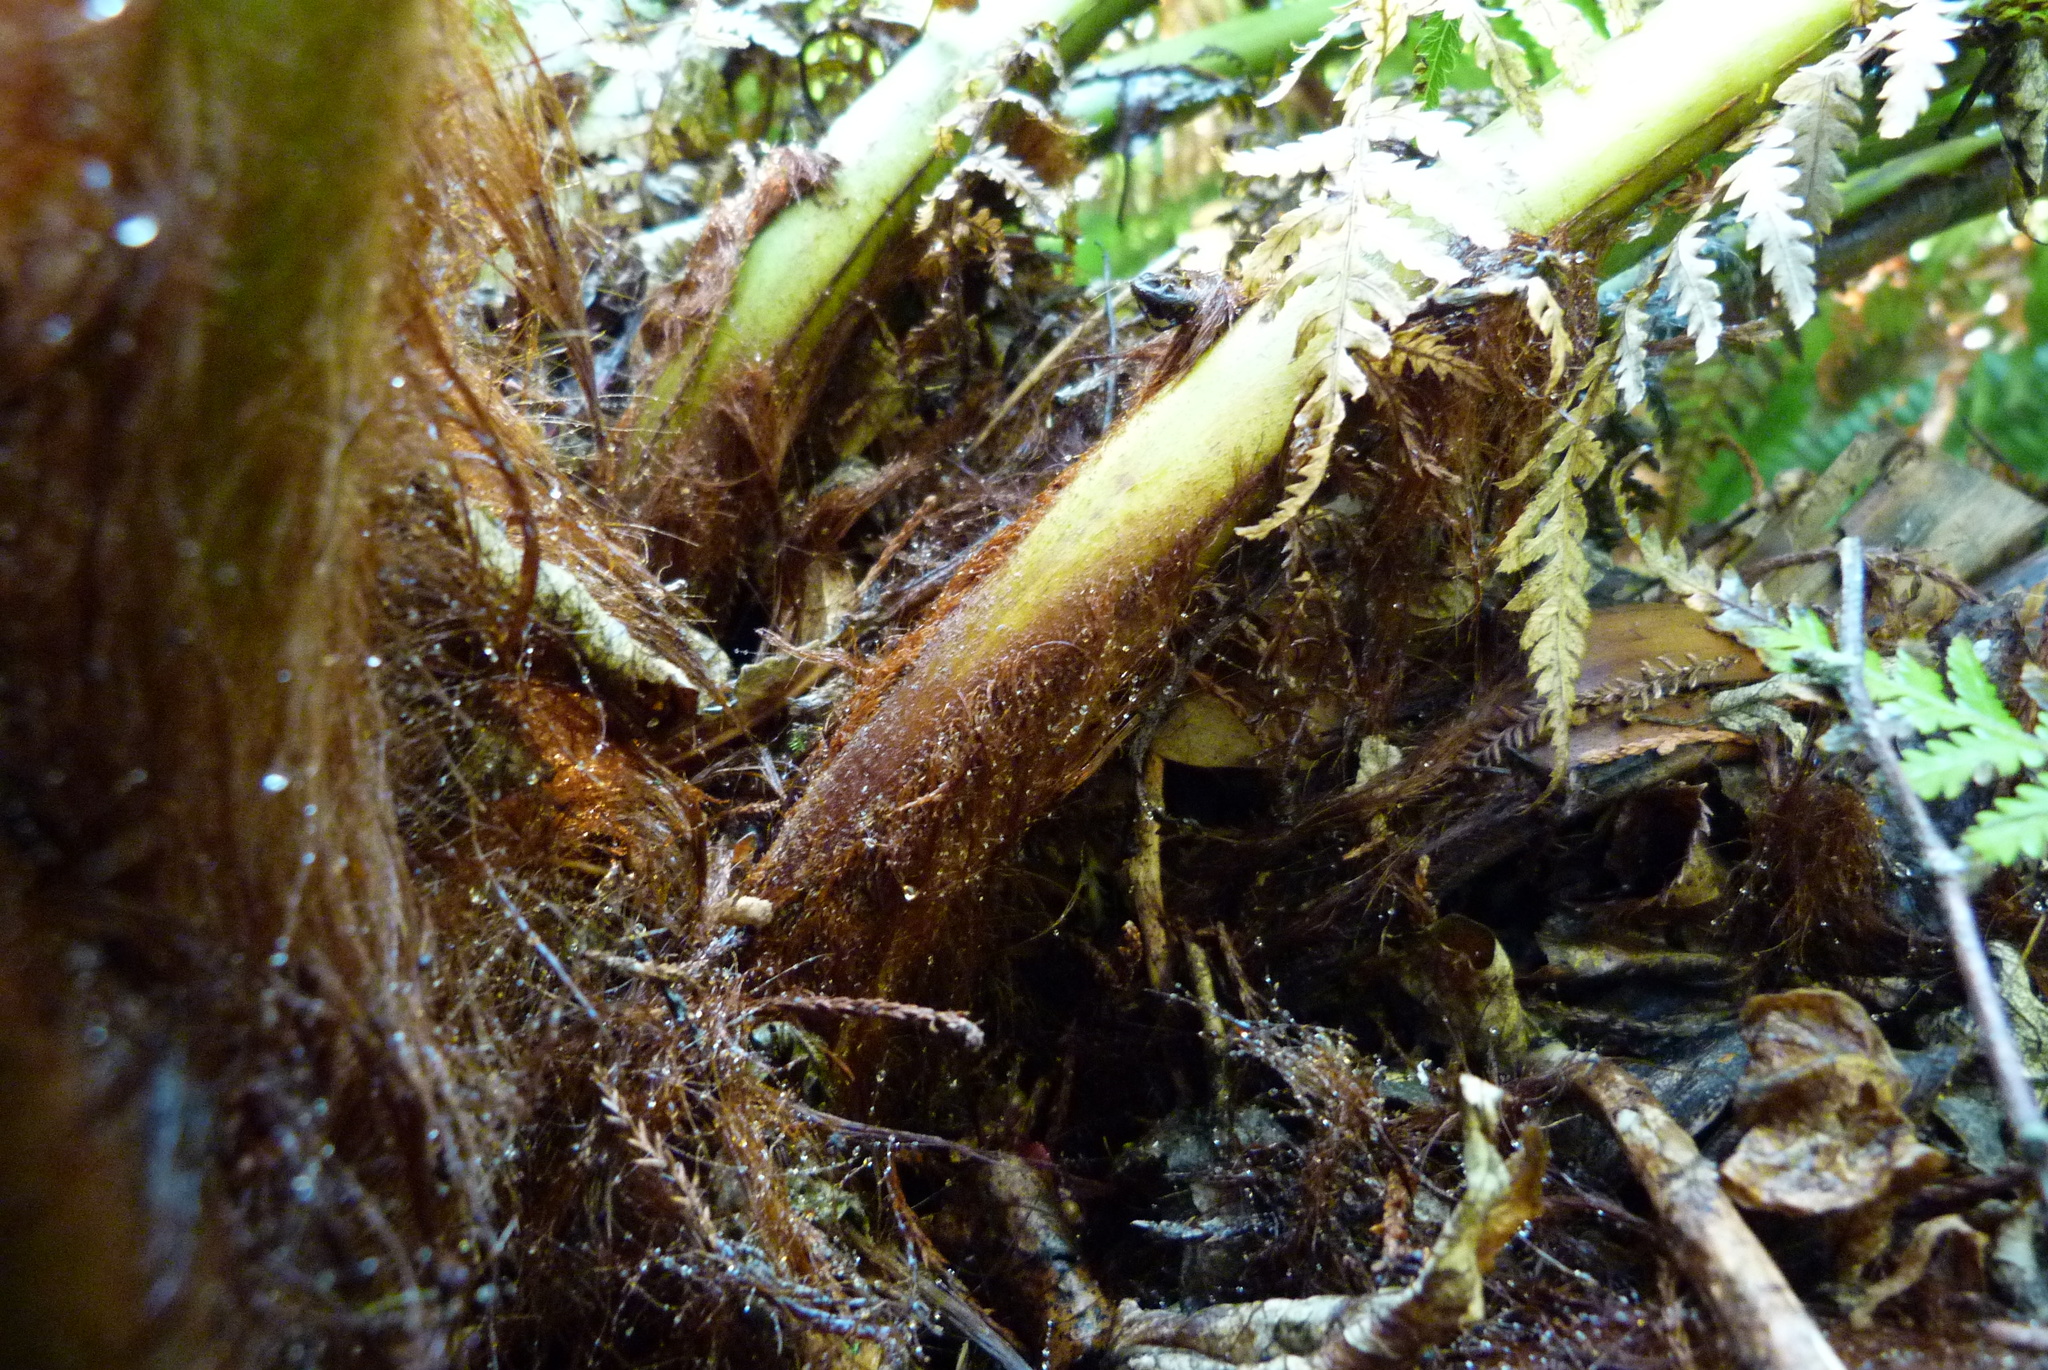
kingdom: Plantae
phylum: Tracheophyta
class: Polypodiopsida
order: Cyatheales
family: Dicksoniaceae
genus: Dicksonia
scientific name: Dicksonia fibrosa
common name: Golden tree fern
